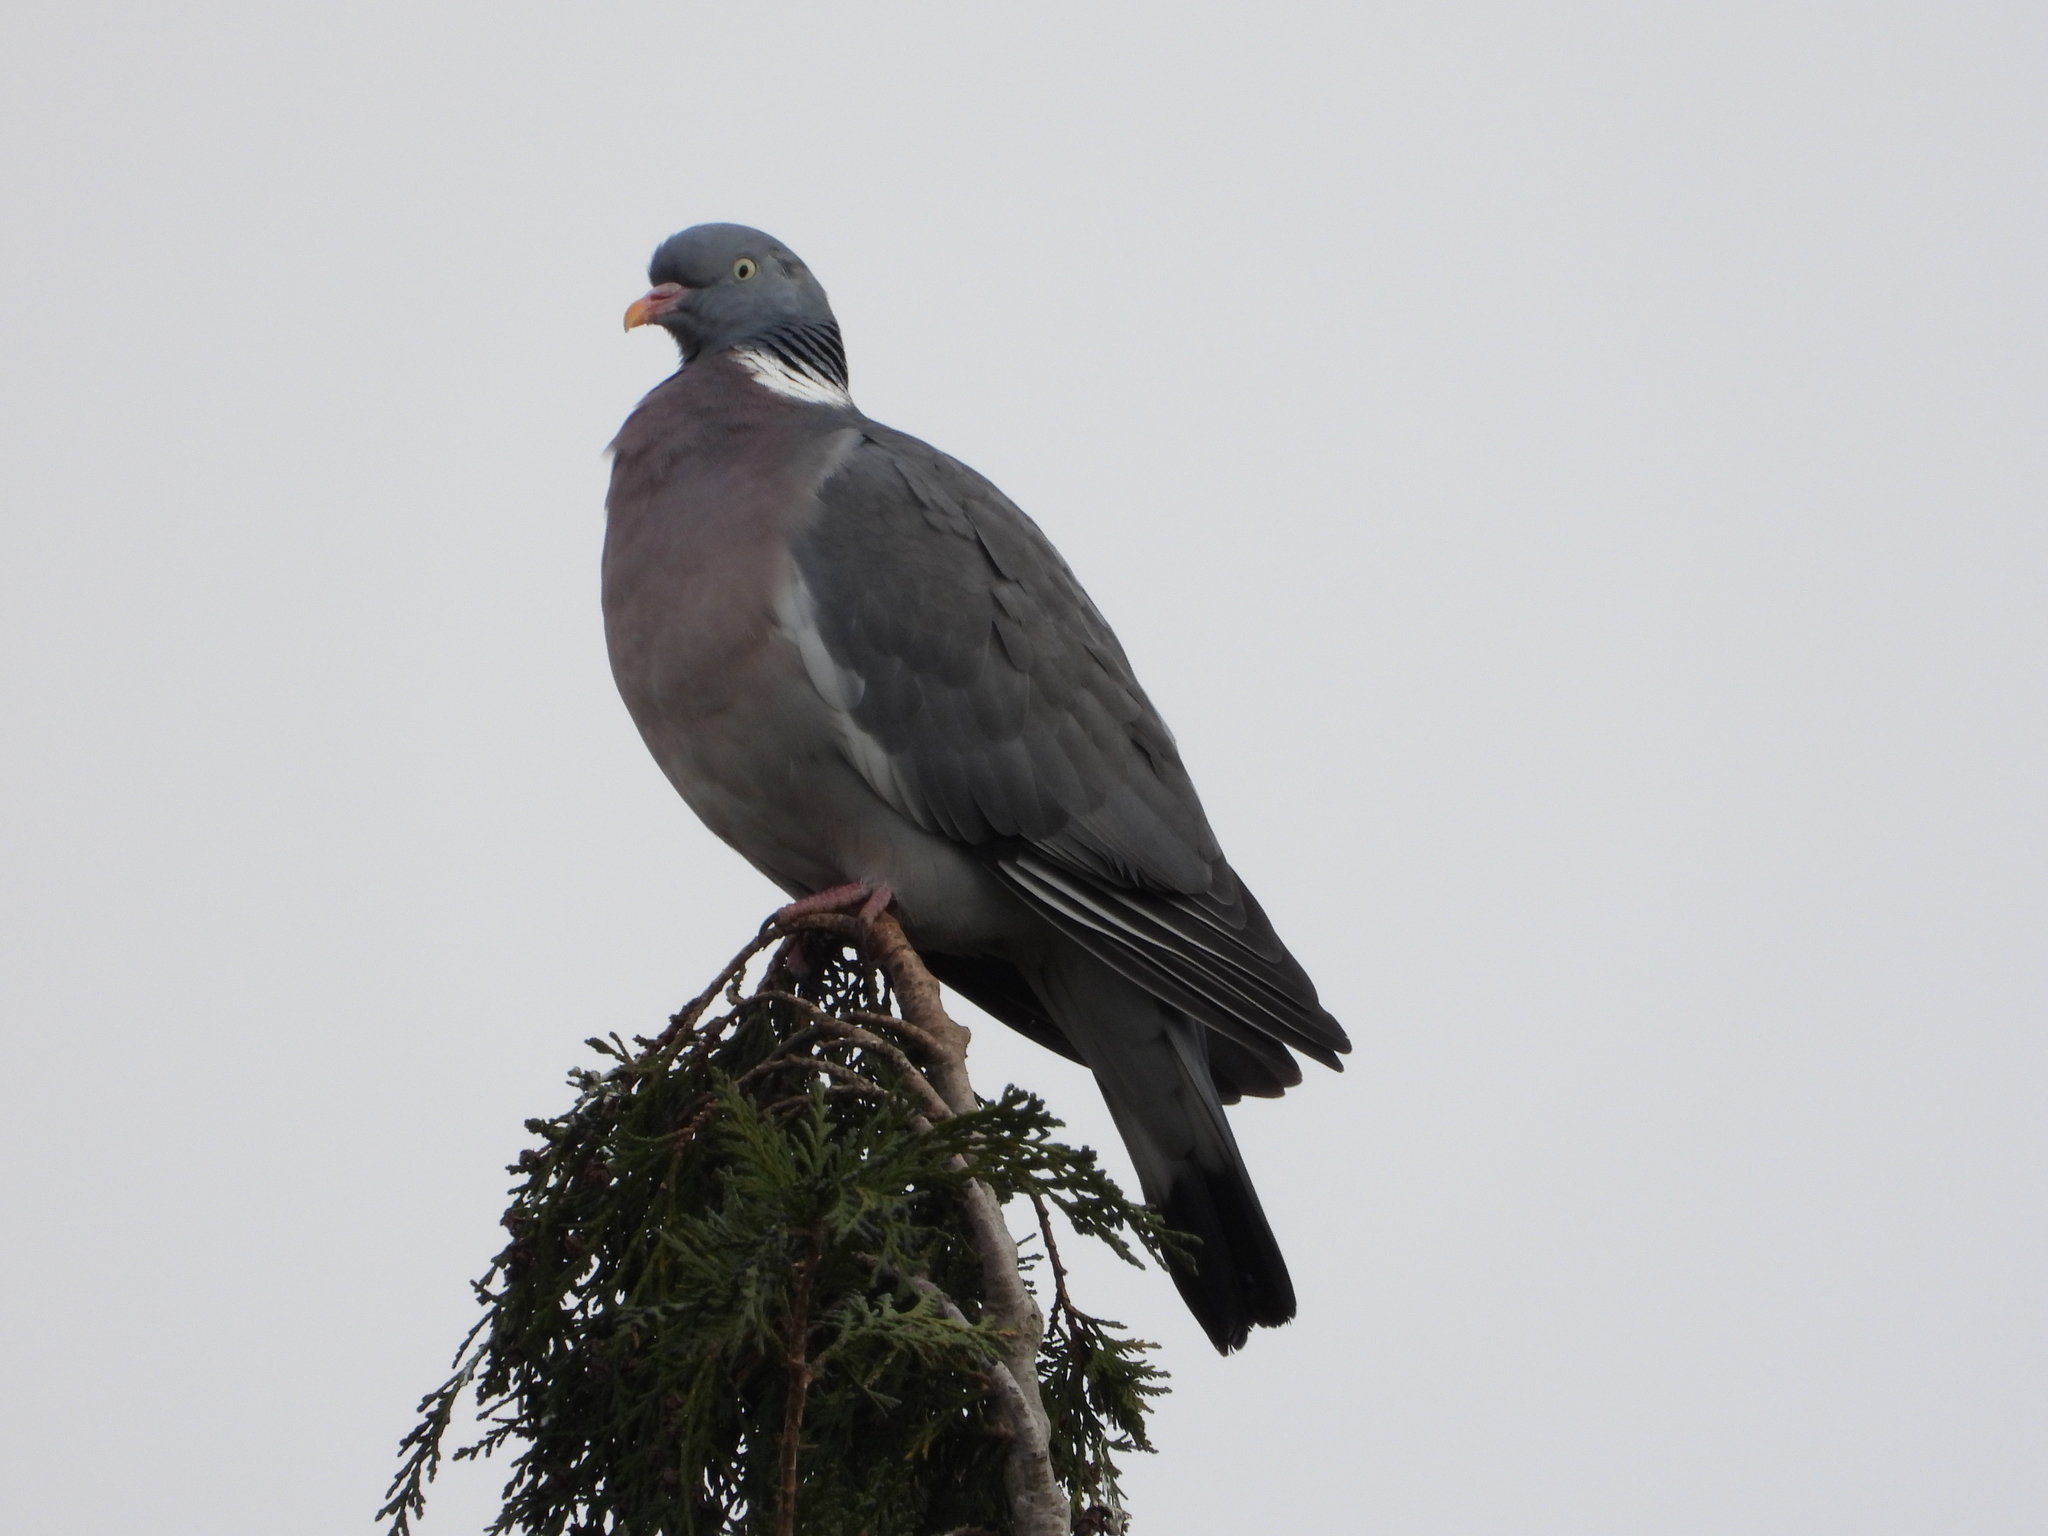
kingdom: Animalia
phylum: Chordata
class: Aves
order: Columbiformes
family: Columbidae
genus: Columba
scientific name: Columba palumbus
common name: Common wood pigeon
